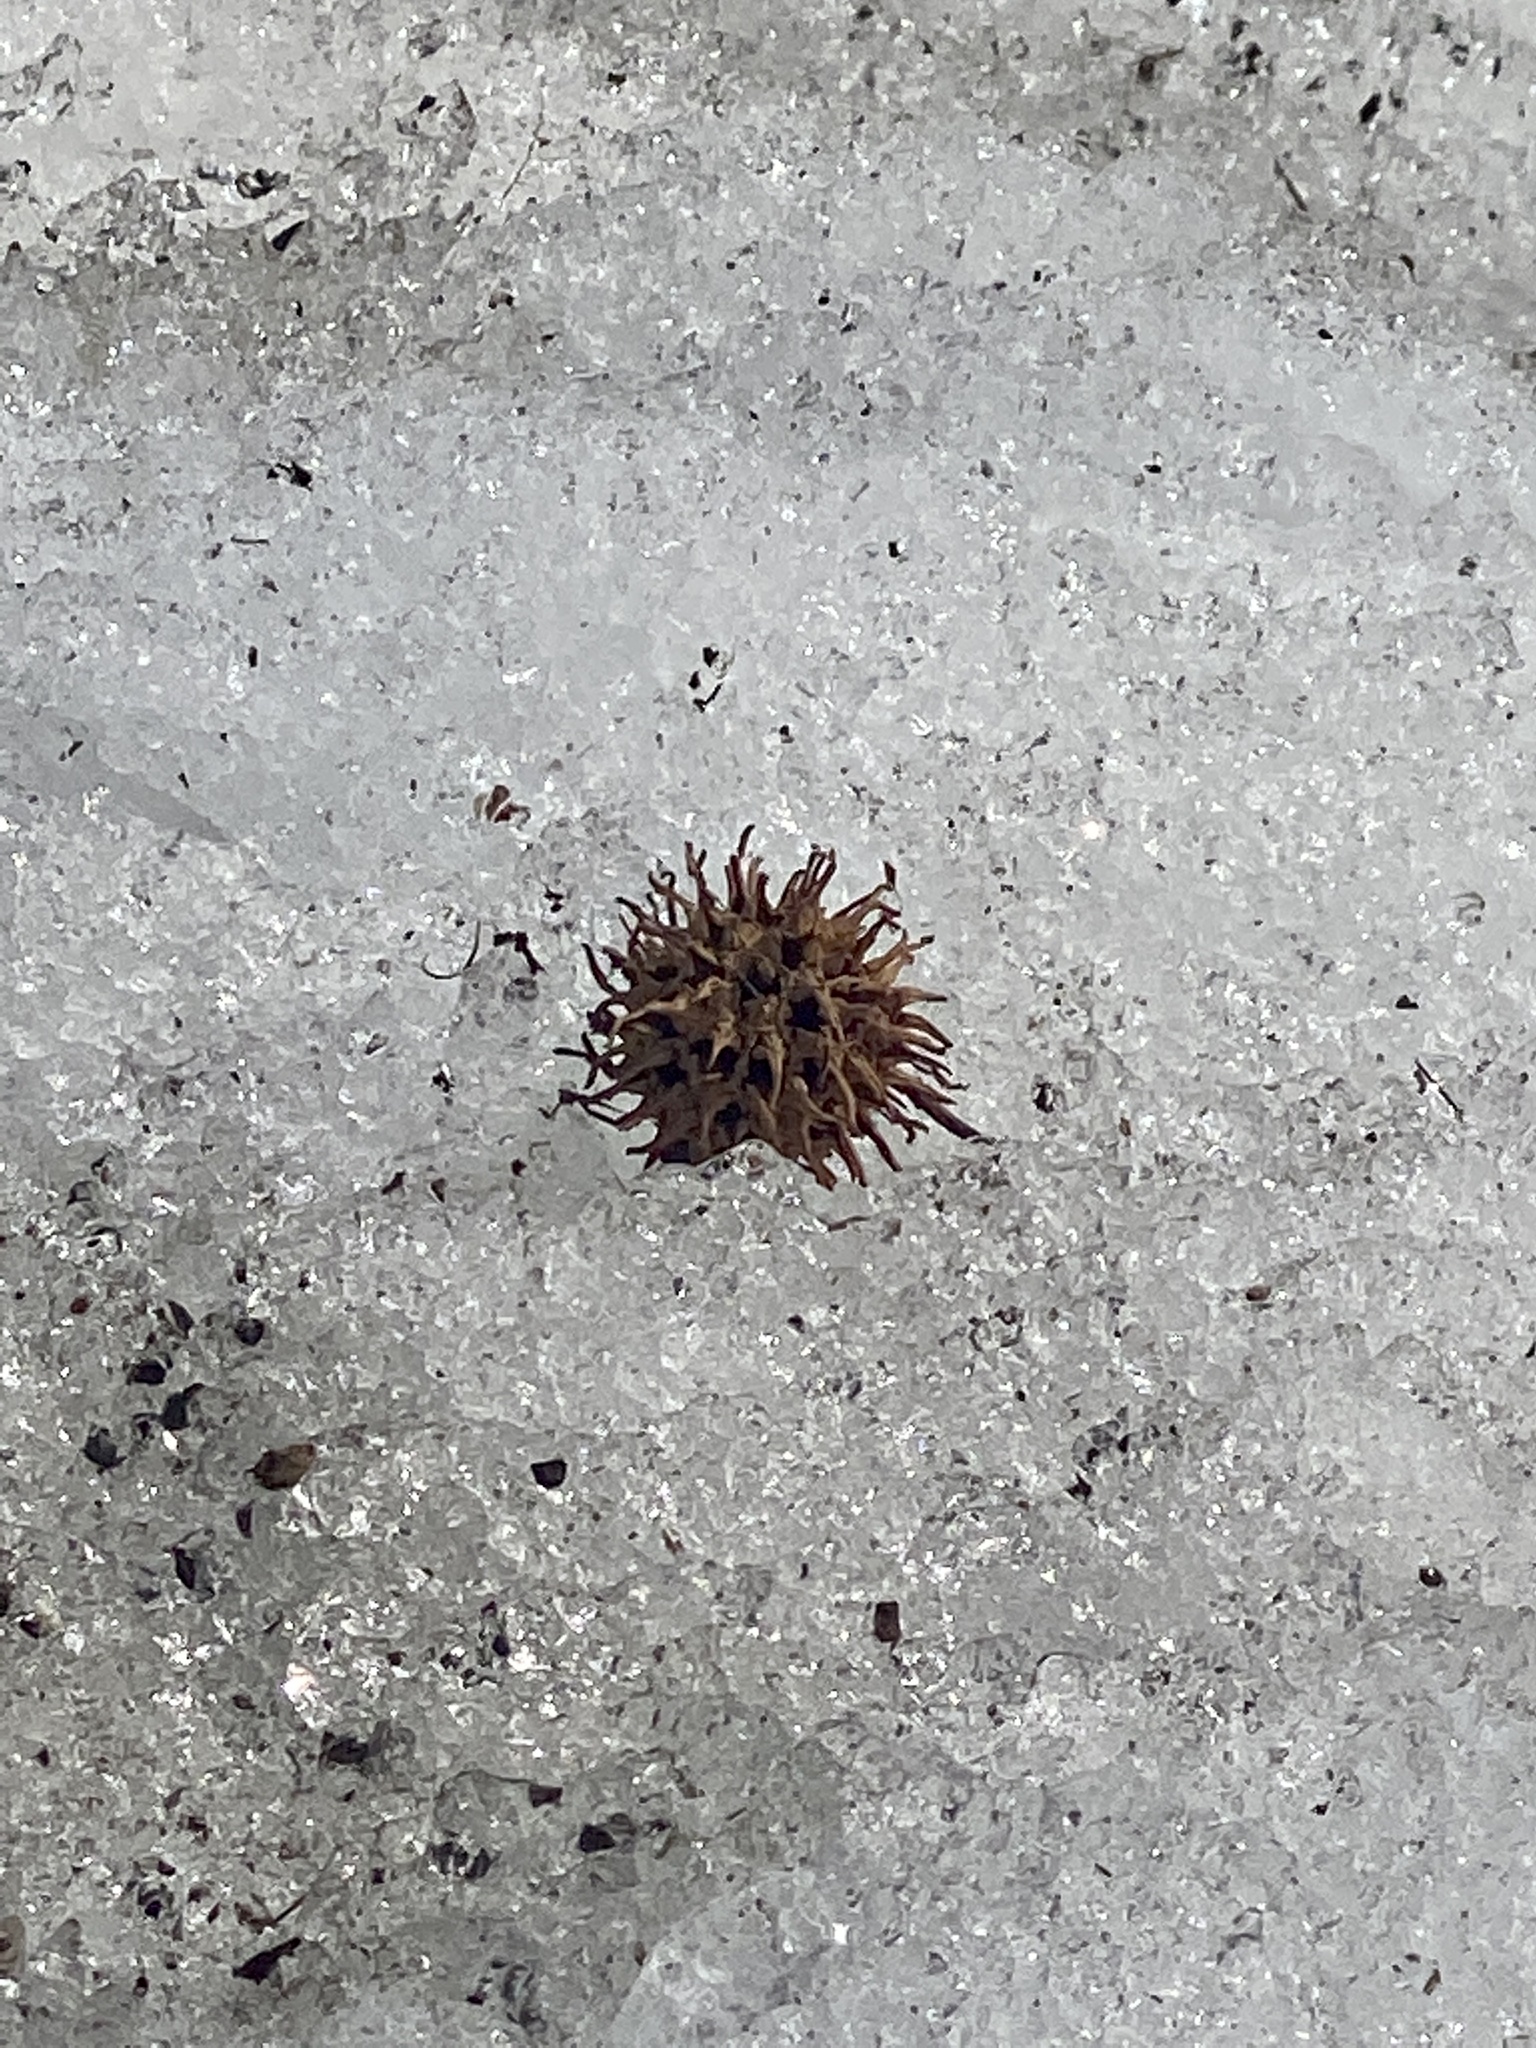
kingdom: Plantae
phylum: Tracheophyta
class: Magnoliopsida
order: Saxifragales
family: Altingiaceae
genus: Liquidambar
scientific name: Liquidambar styraciflua
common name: Sweet gum
